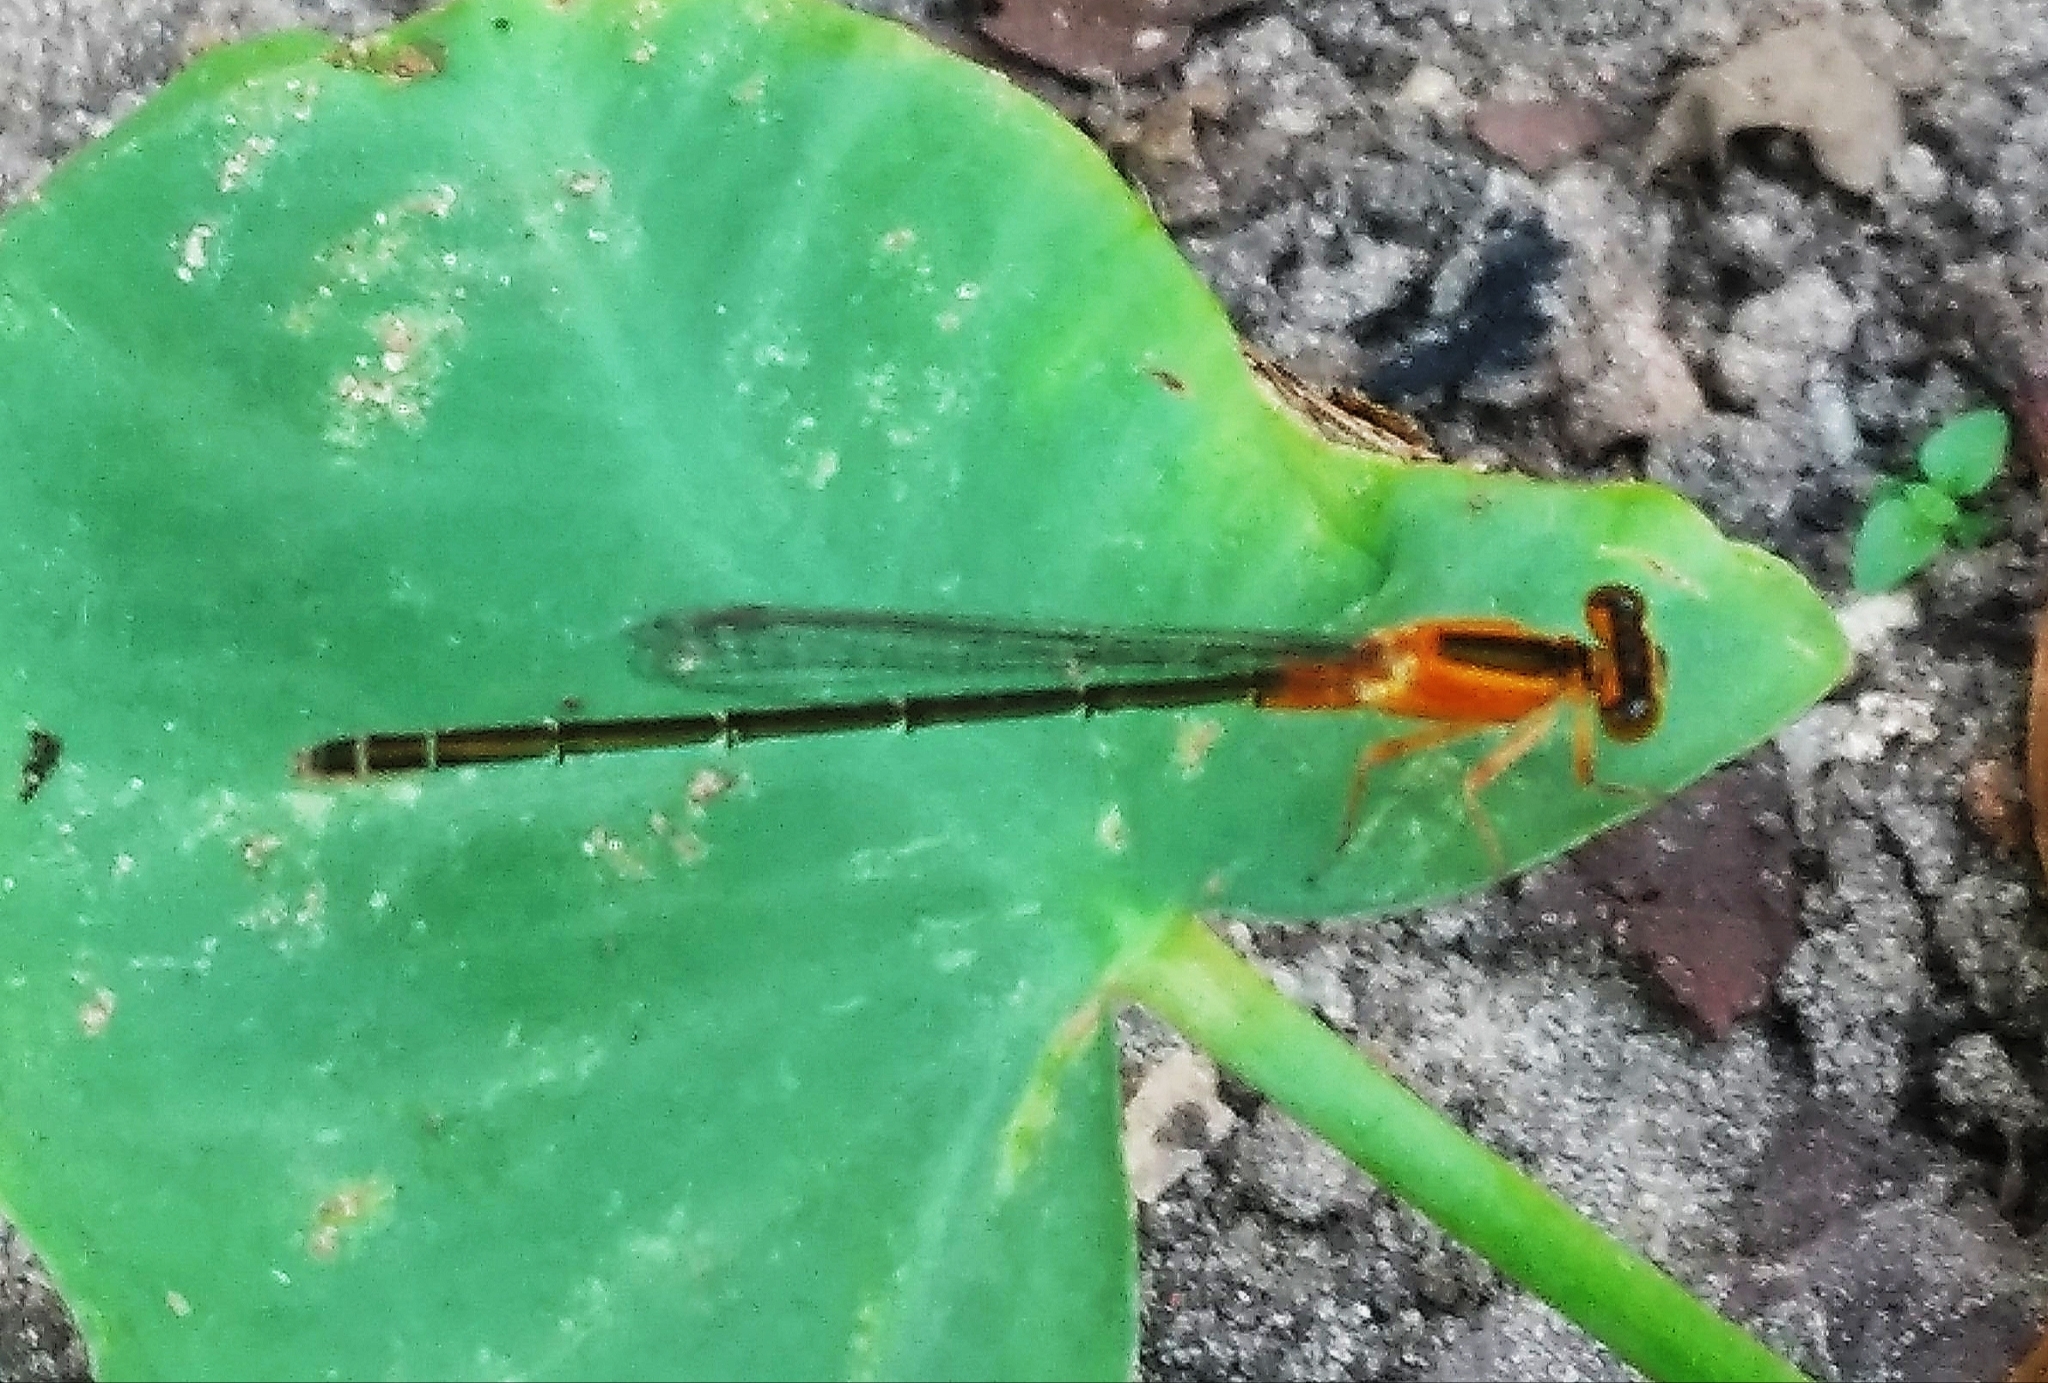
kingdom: Animalia
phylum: Arthropoda
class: Insecta
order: Odonata
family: Coenagrionidae
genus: Ischnura
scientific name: Ischnura senegalensis
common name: Tropical bluetail
